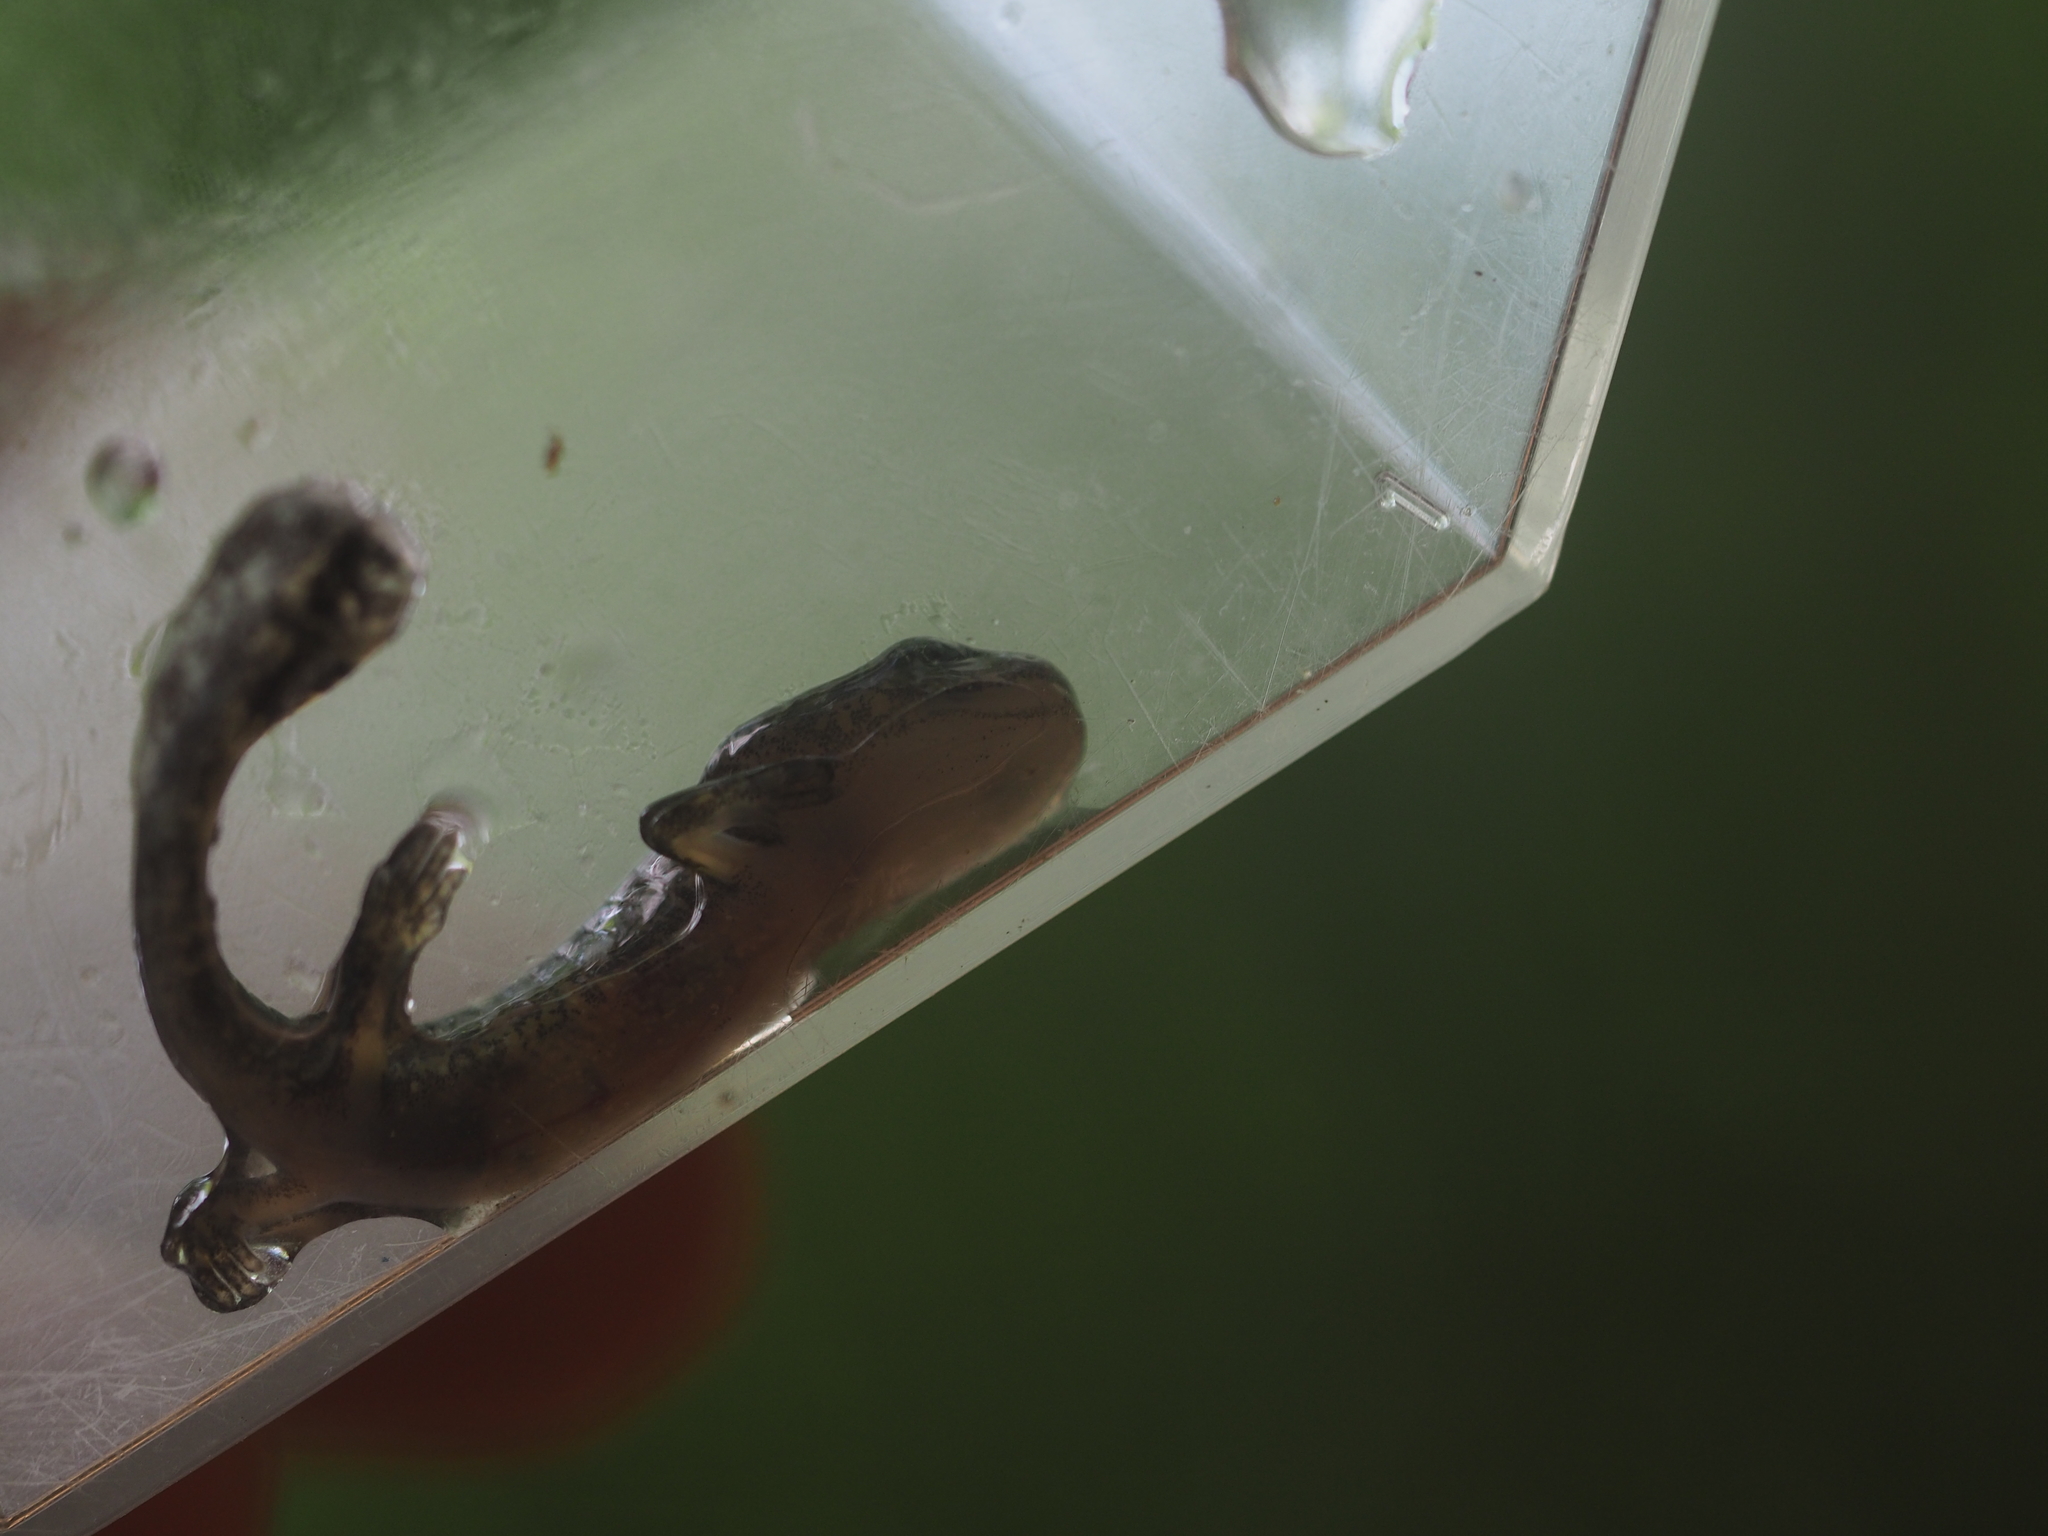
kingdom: Animalia
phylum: Chordata
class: Amphibia
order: Caudata
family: Salamandridae
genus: Salamandra
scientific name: Salamandra salamandra
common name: Fire salamander
